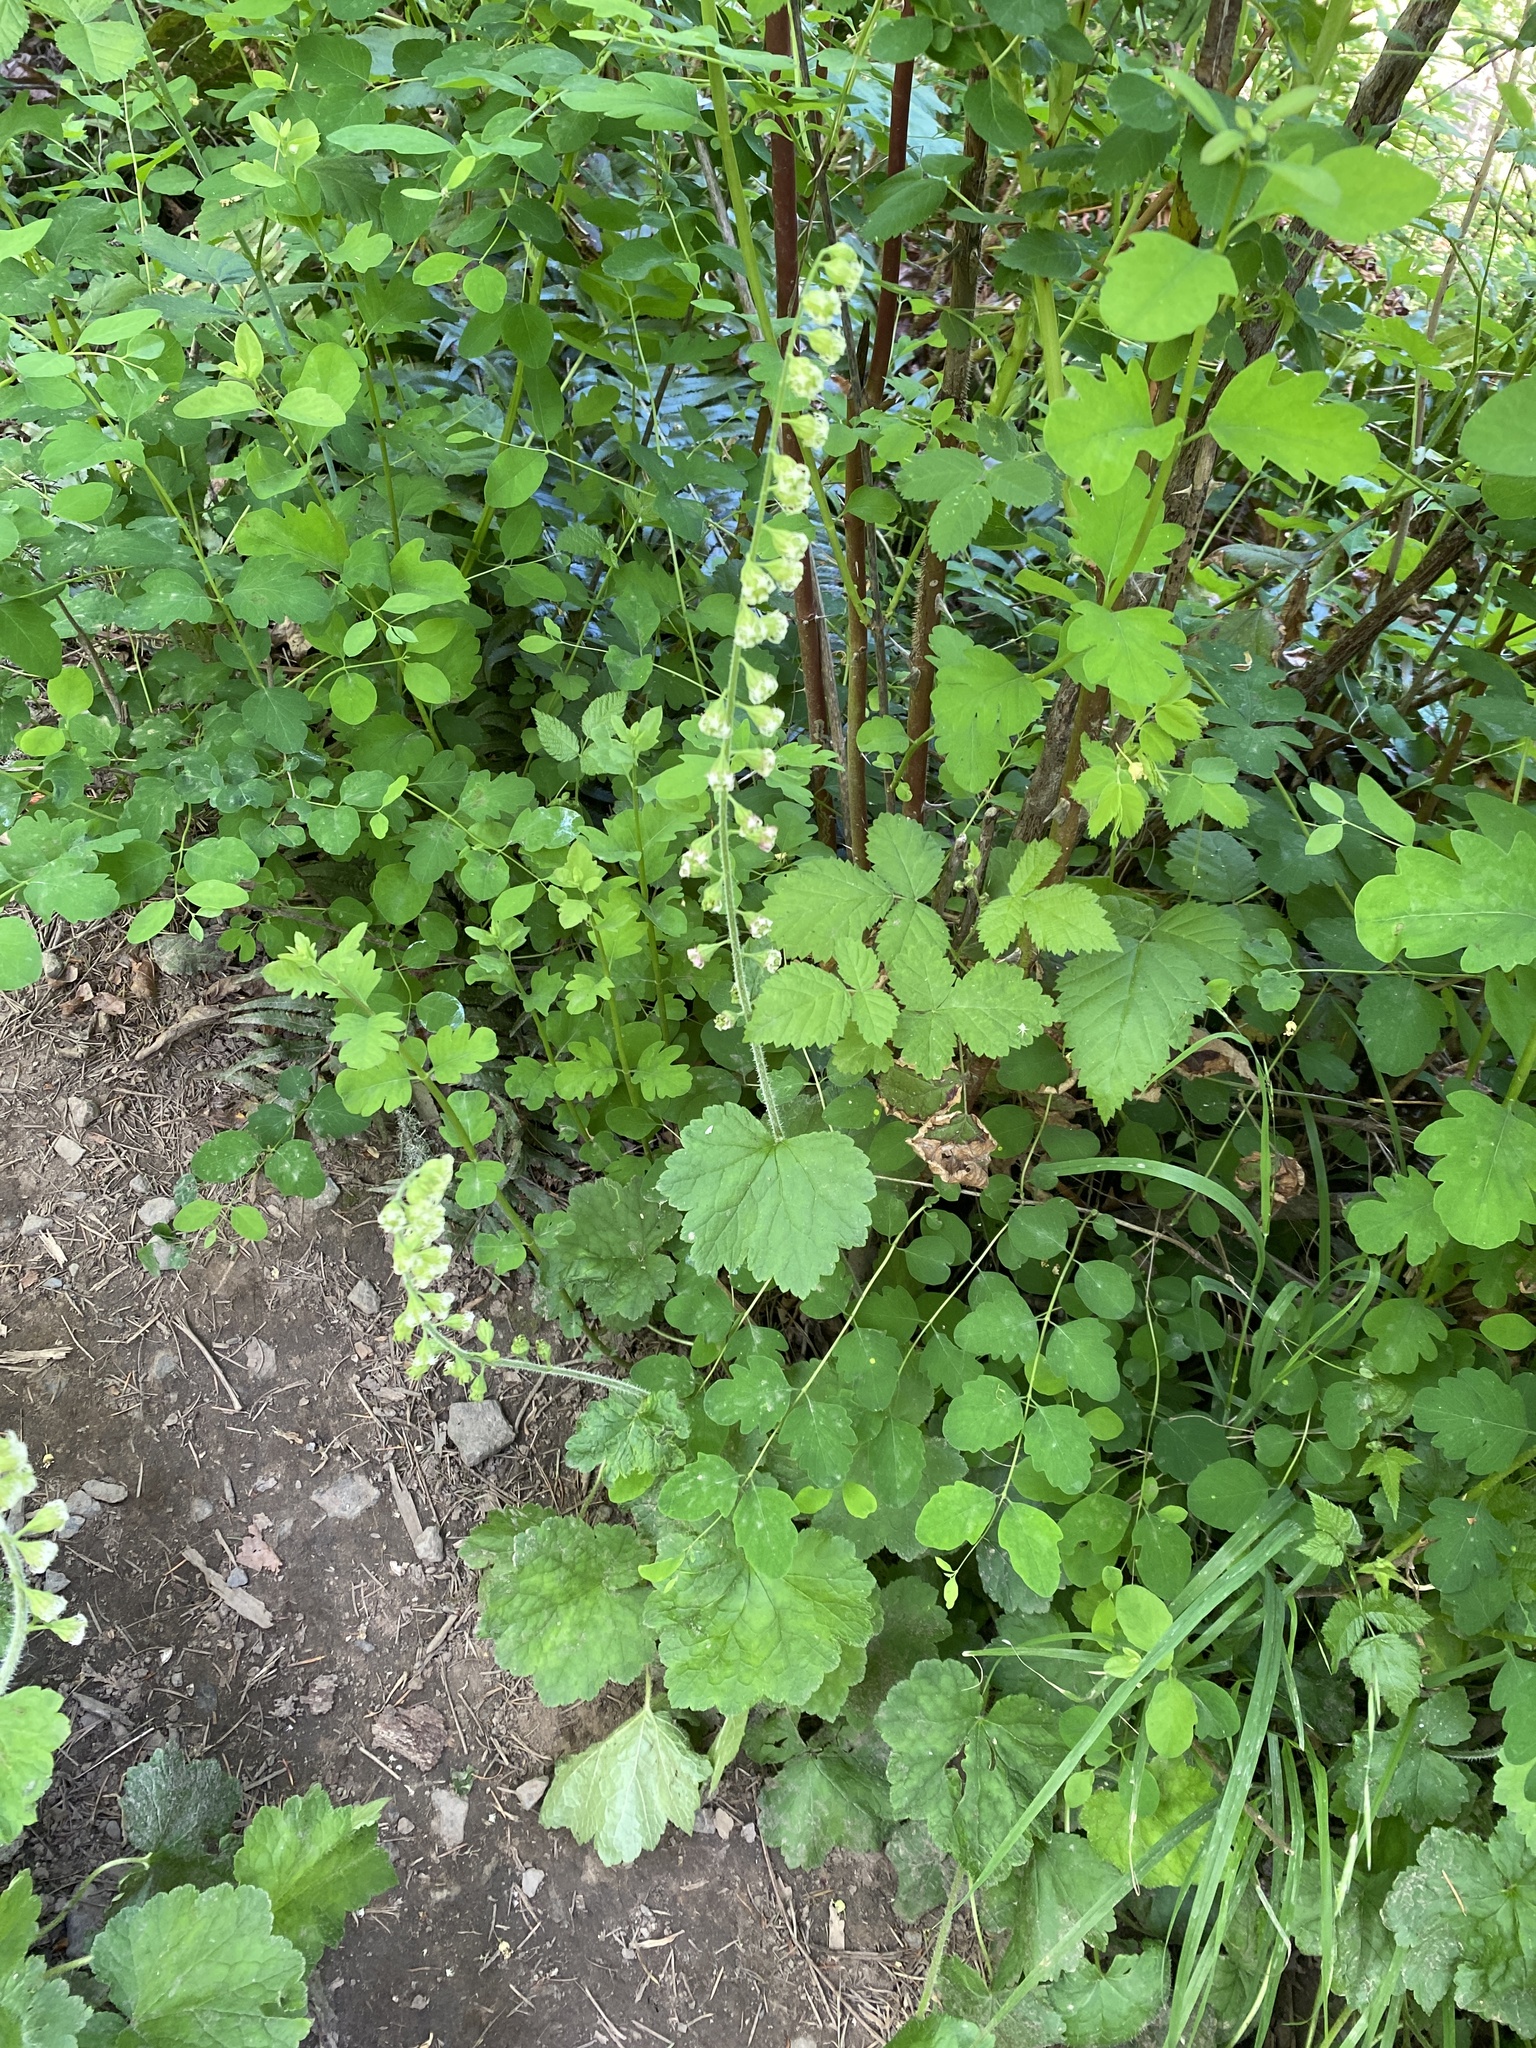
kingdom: Plantae
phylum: Tracheophyta
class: Magnoliopsida
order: Saxifragales
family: Saxifragaceae
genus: Tellima
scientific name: Tellima grandiflora
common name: Fringecups
